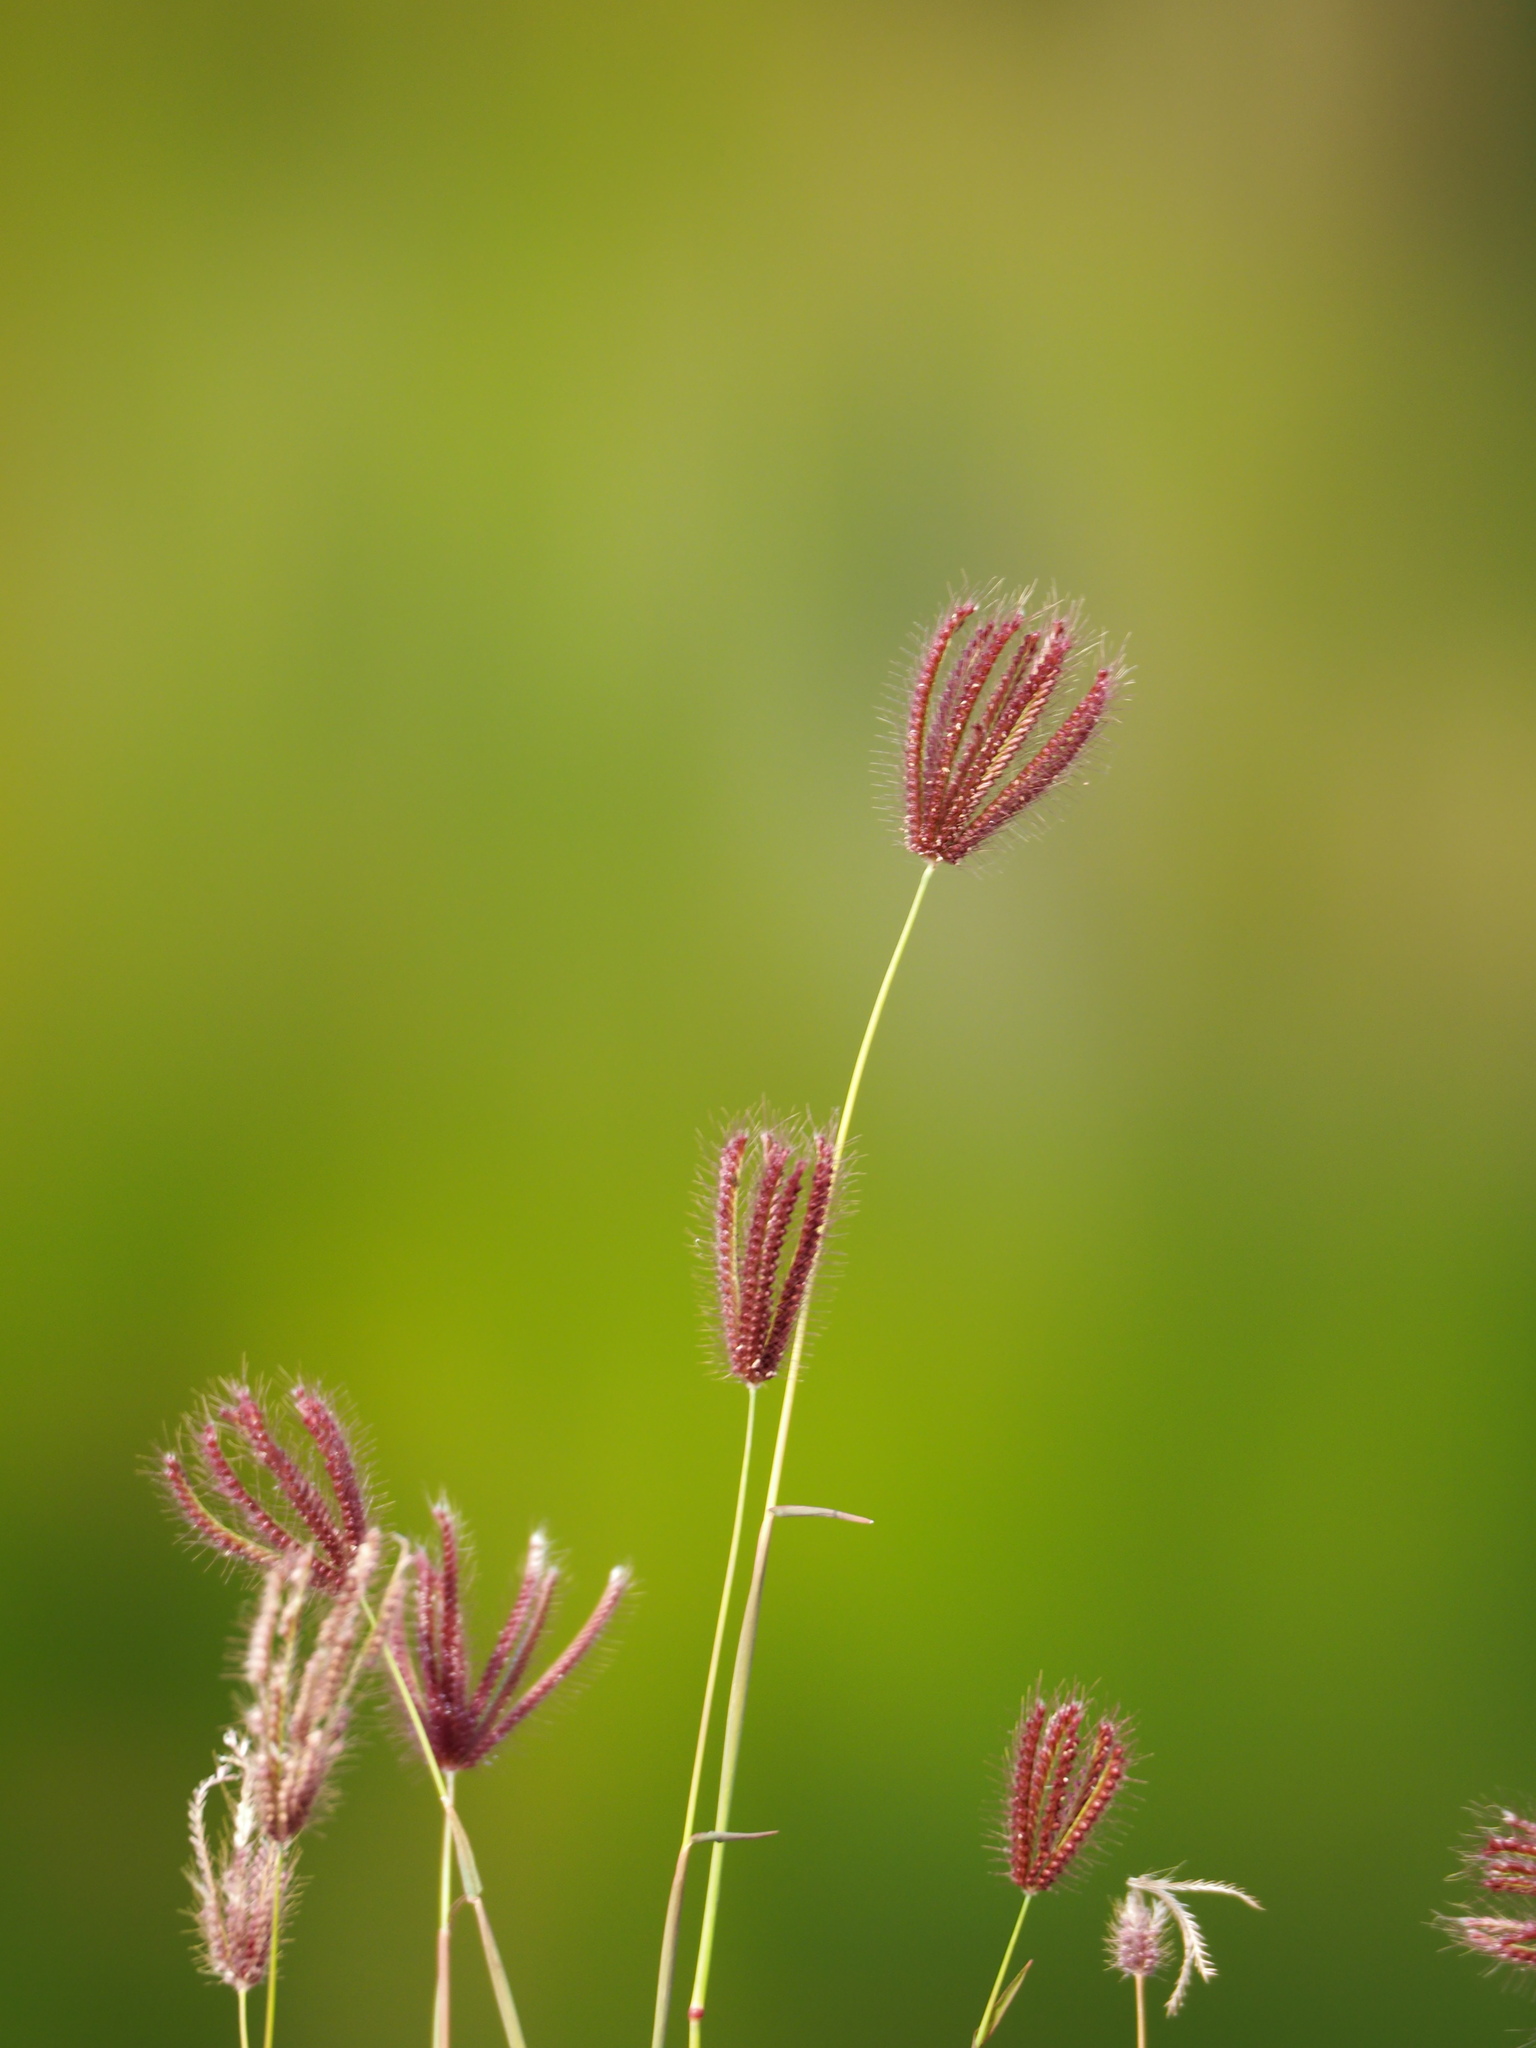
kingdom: Plantae
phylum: Tracheophyta
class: Liliopsida
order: Poales
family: Poaceae
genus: Chloris
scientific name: Chloris barbata
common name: Swollen fingergrass
